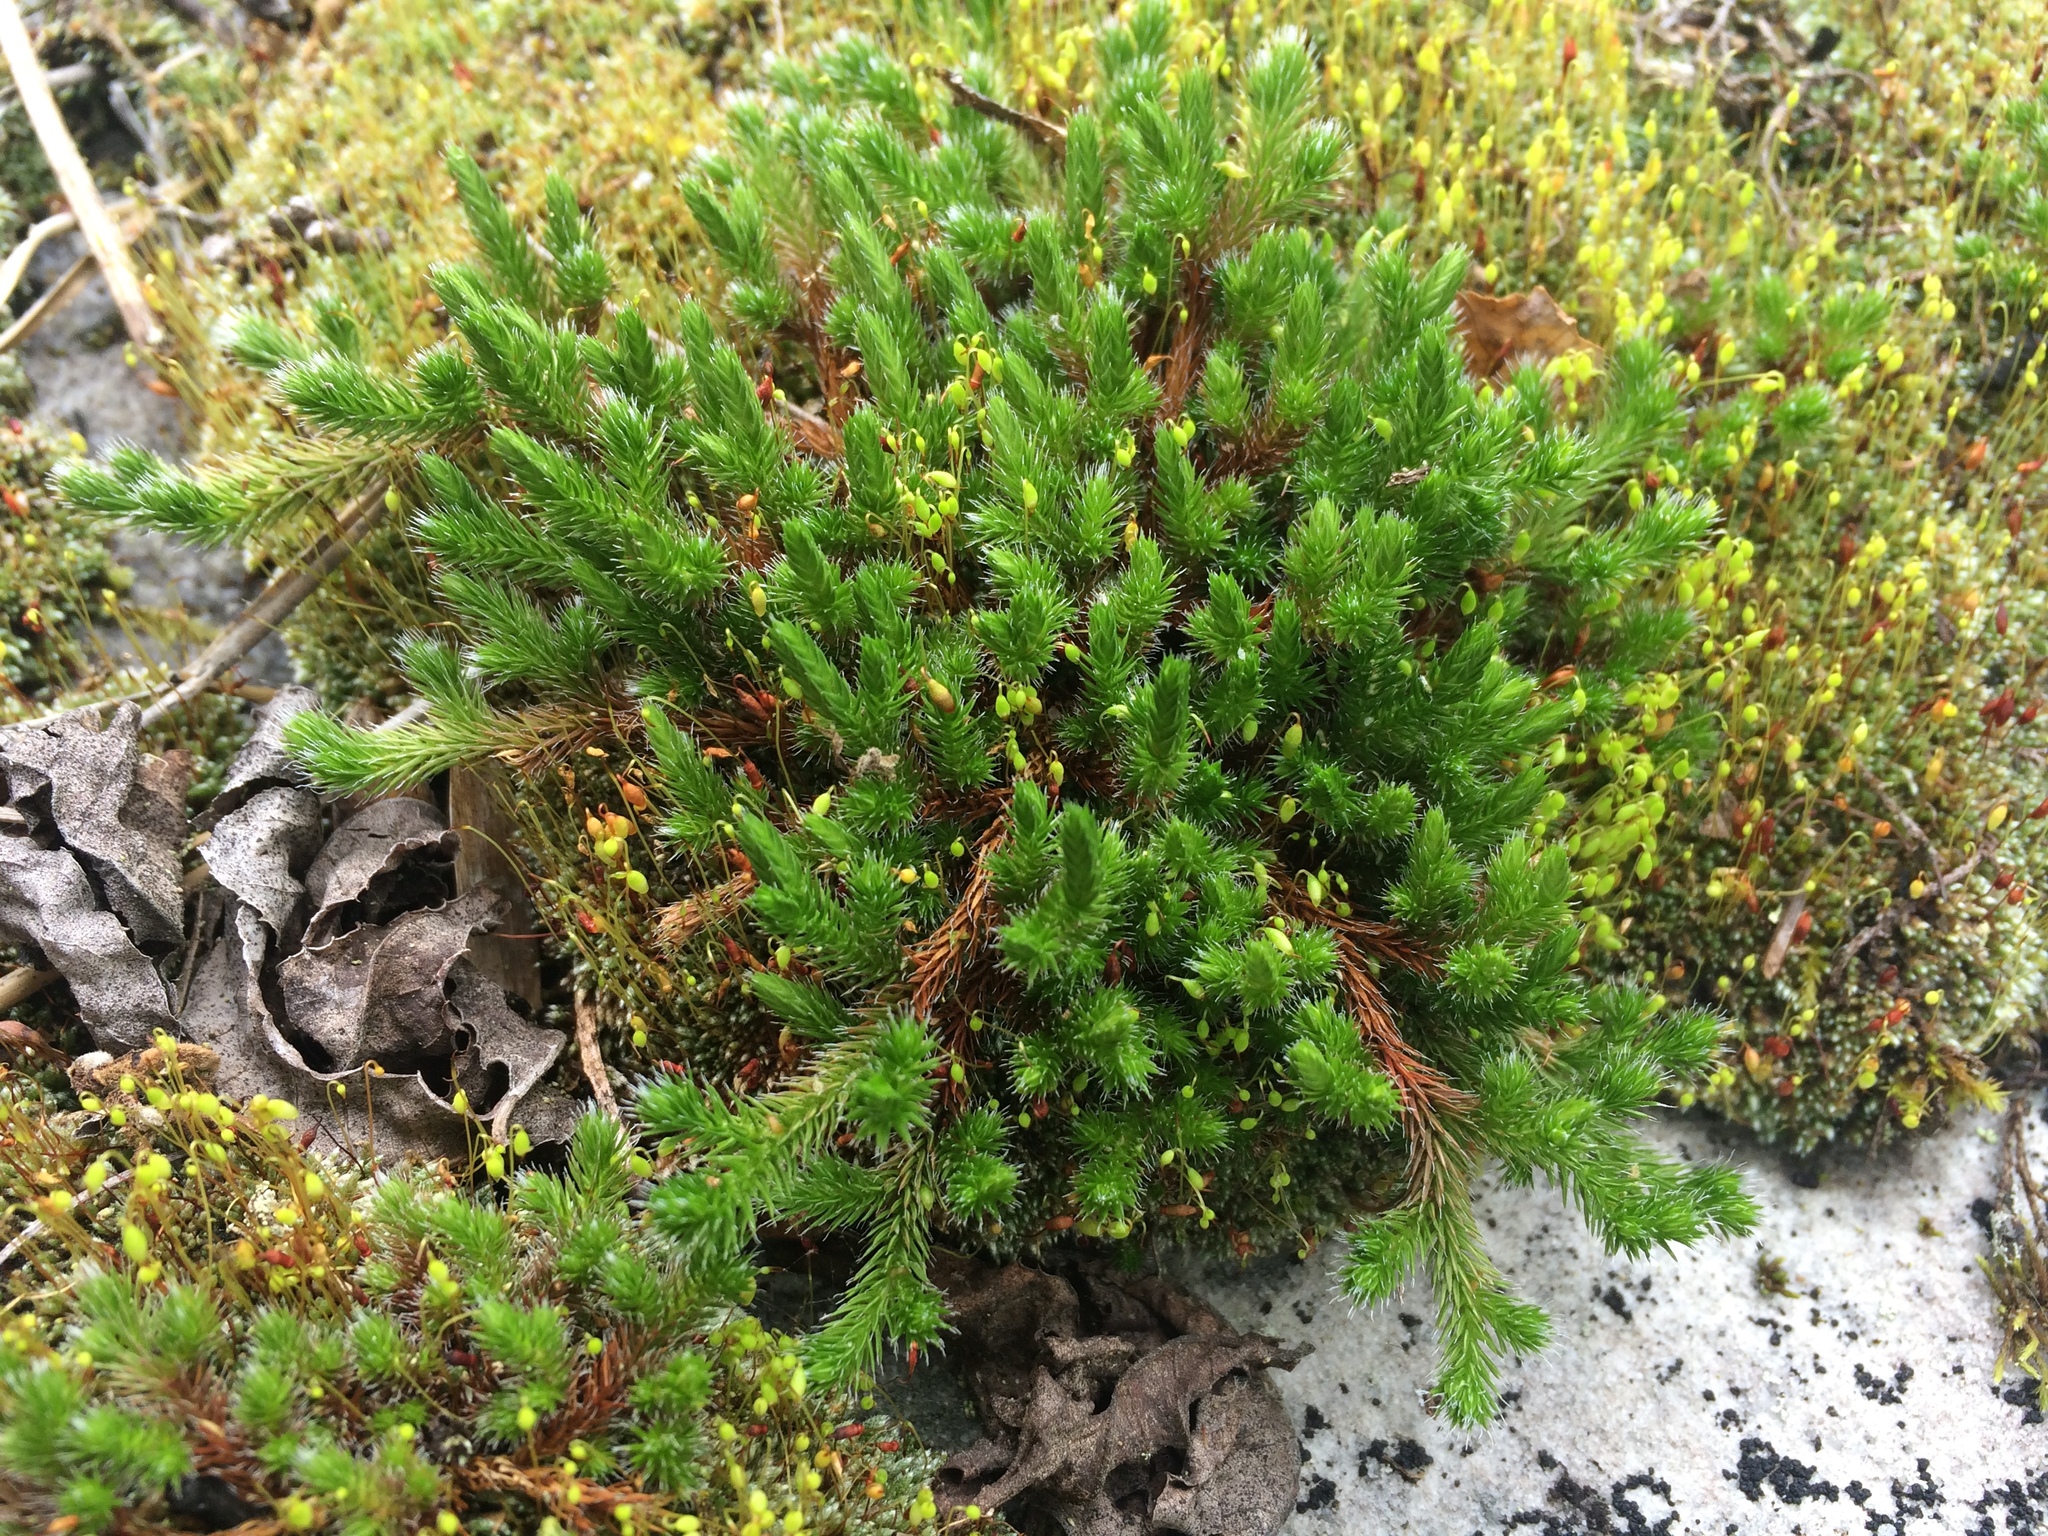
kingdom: Plantae
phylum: Tracheophyta
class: Lycopodiopsida
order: Selaginellales
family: Selaginellaceae
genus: Selaginella
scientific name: Selaginella rupestris
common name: Dwarf spikemoss
